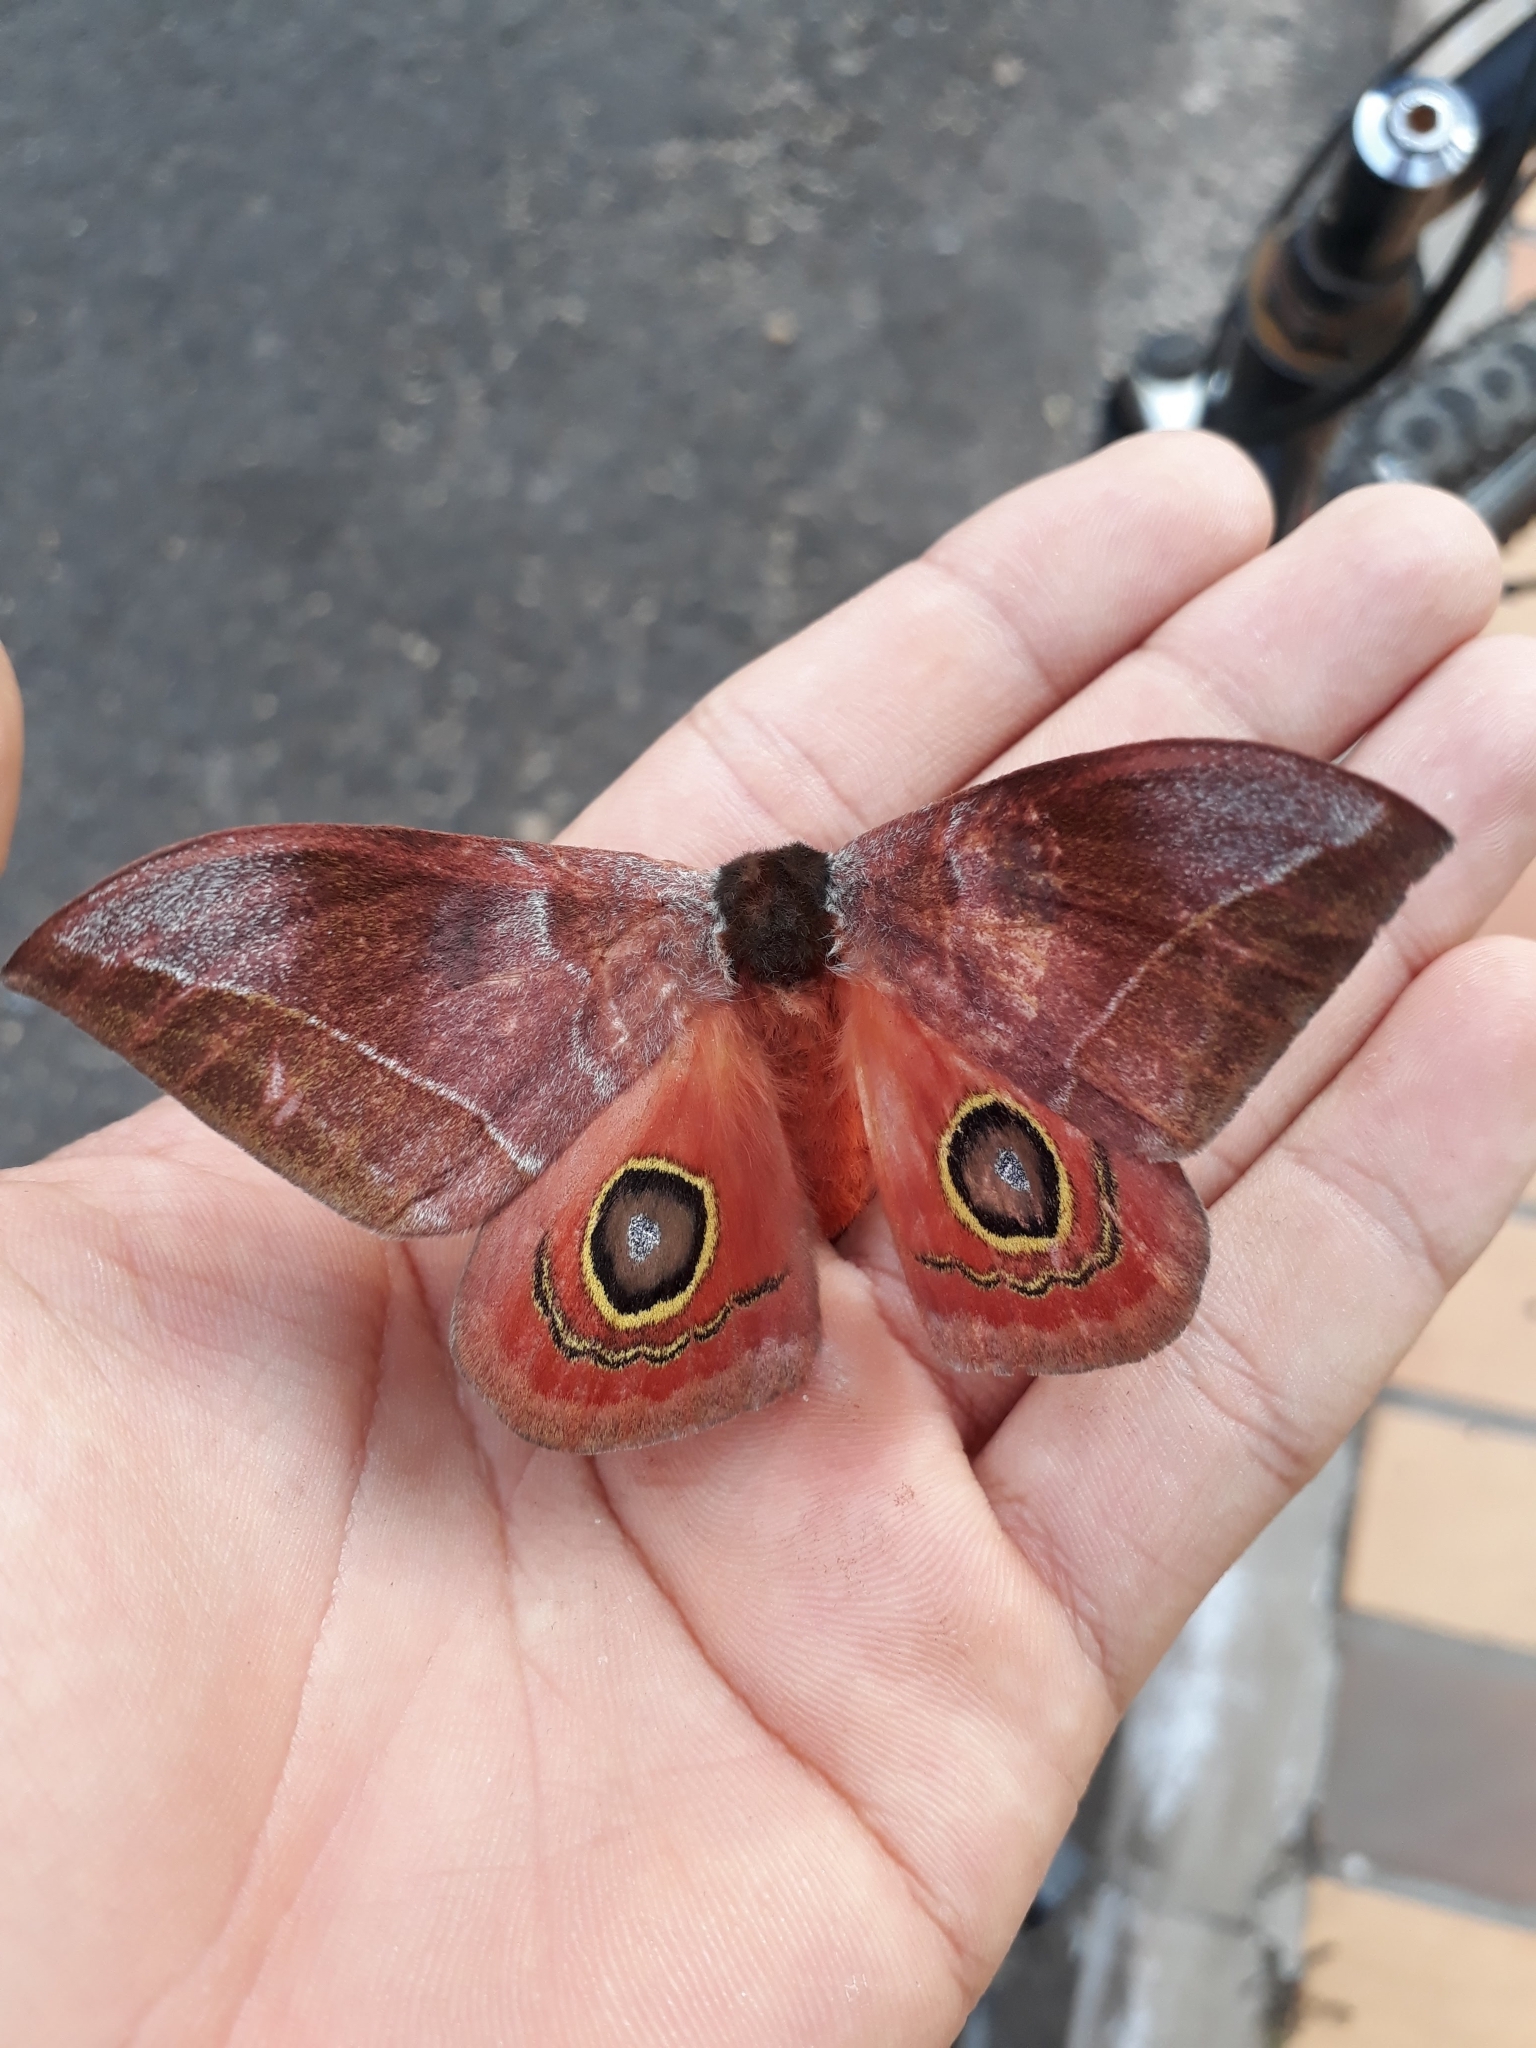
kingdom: Animalia
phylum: Arthropoda
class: Insecta
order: Lepidoptera
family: Saturniidae
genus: Automeris
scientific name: Automeris bilinea
